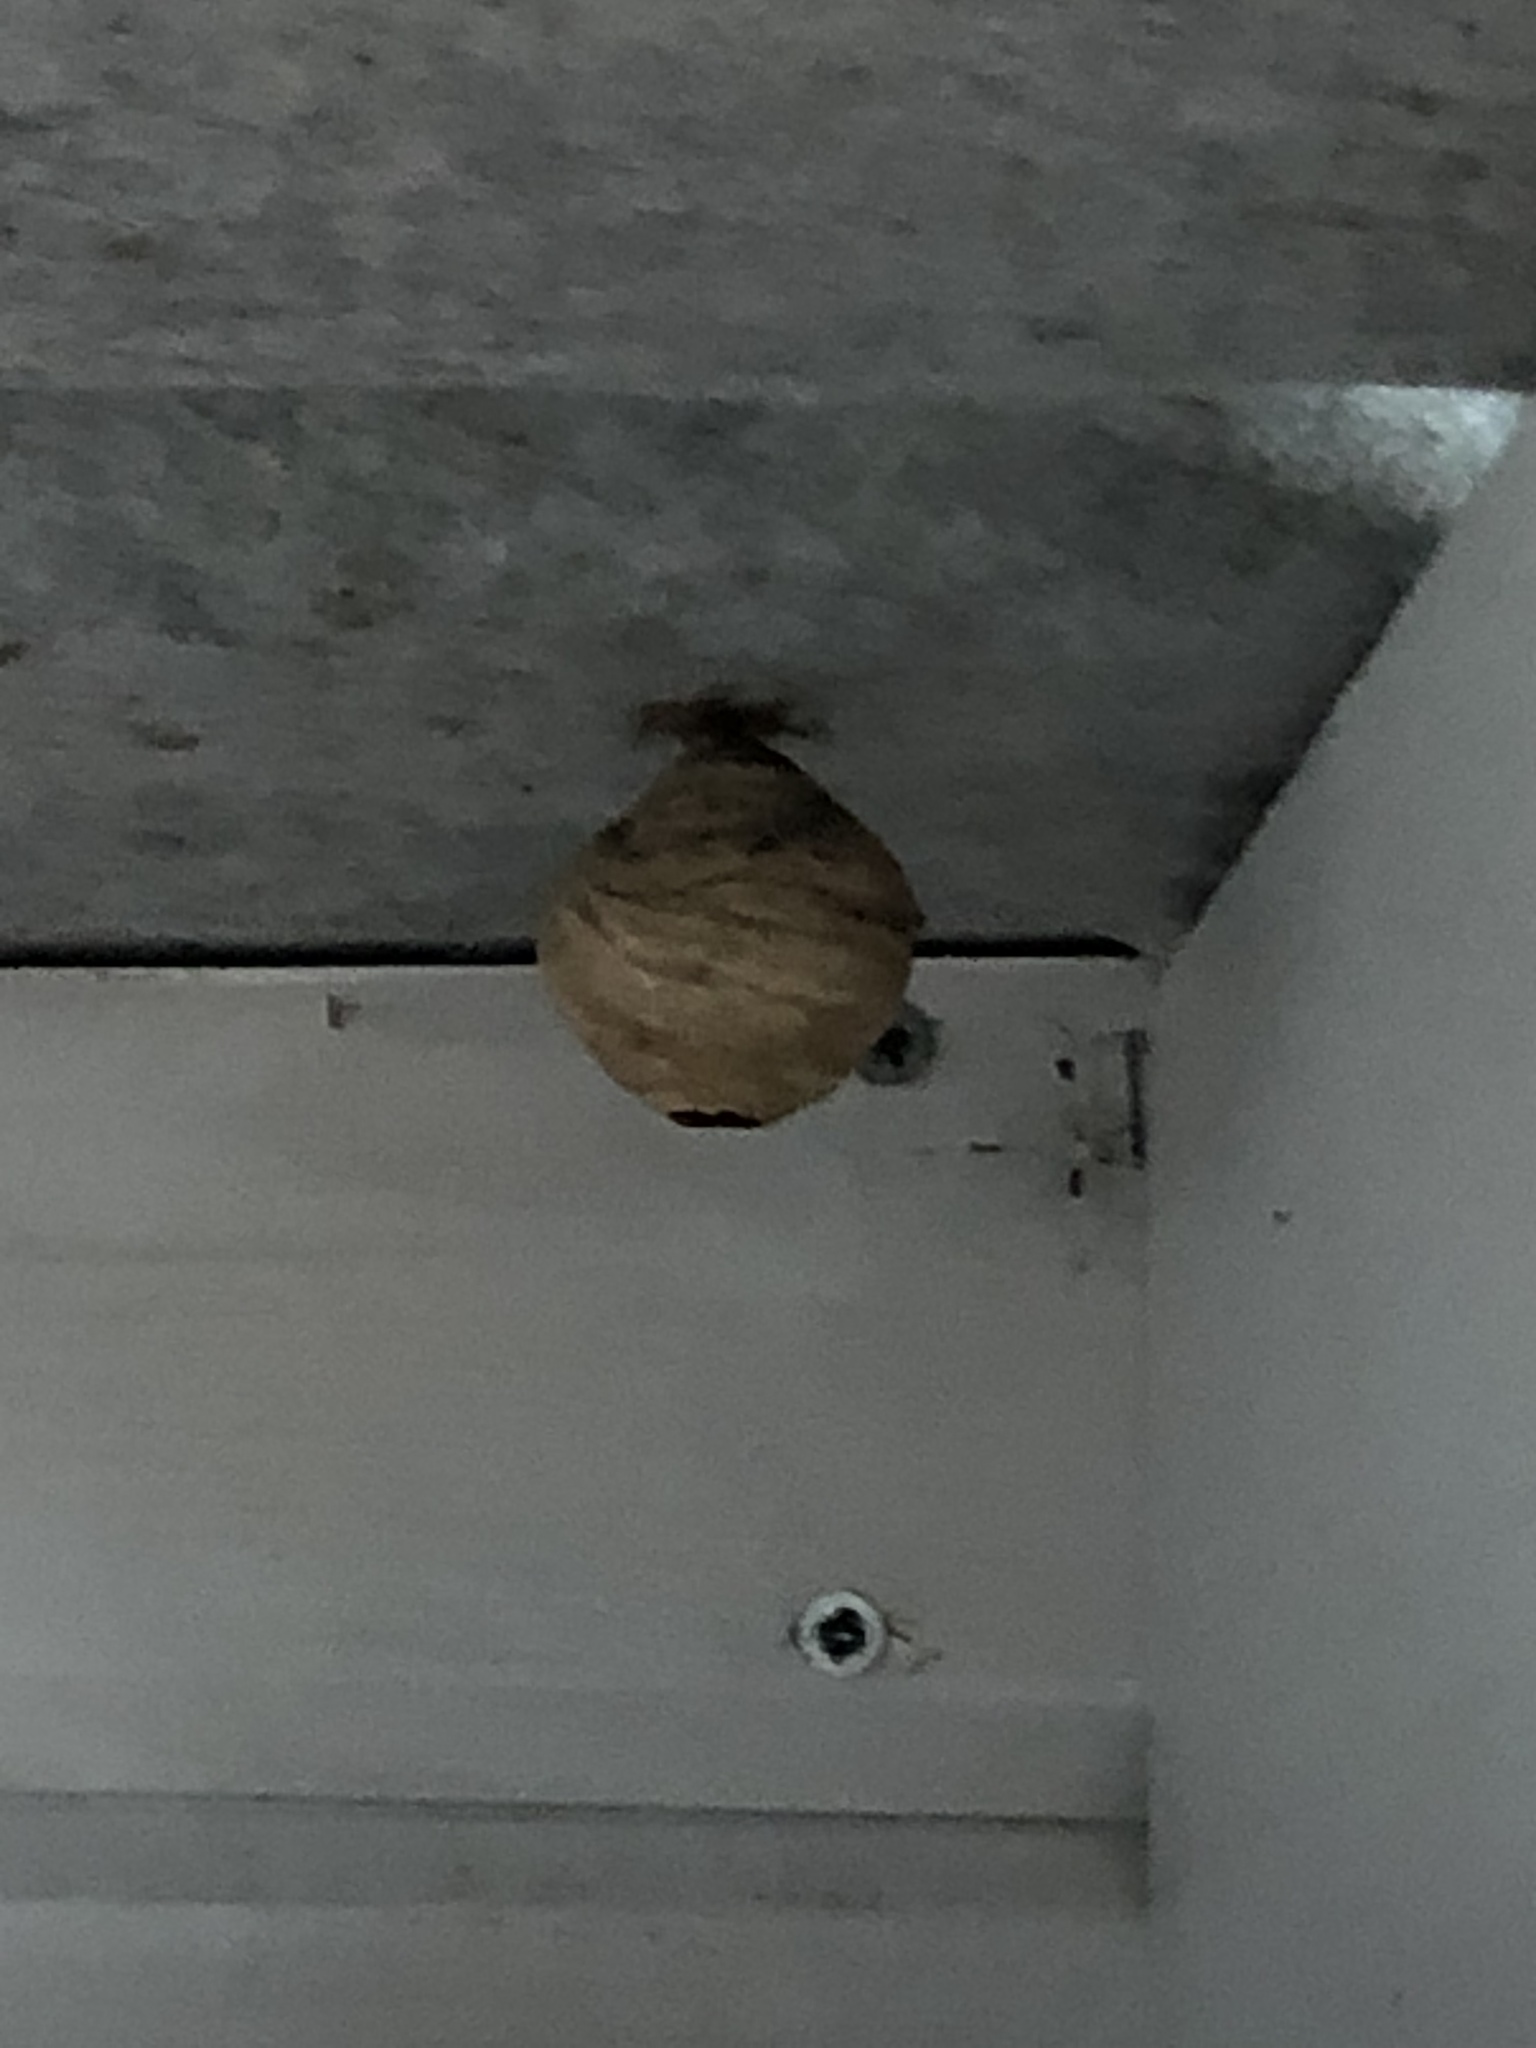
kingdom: Animalia
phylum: Arthropoda
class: Insecta
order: Hymenoptera
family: Vespidae
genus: Vespa
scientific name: Vespa velutina
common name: Asian hornet
